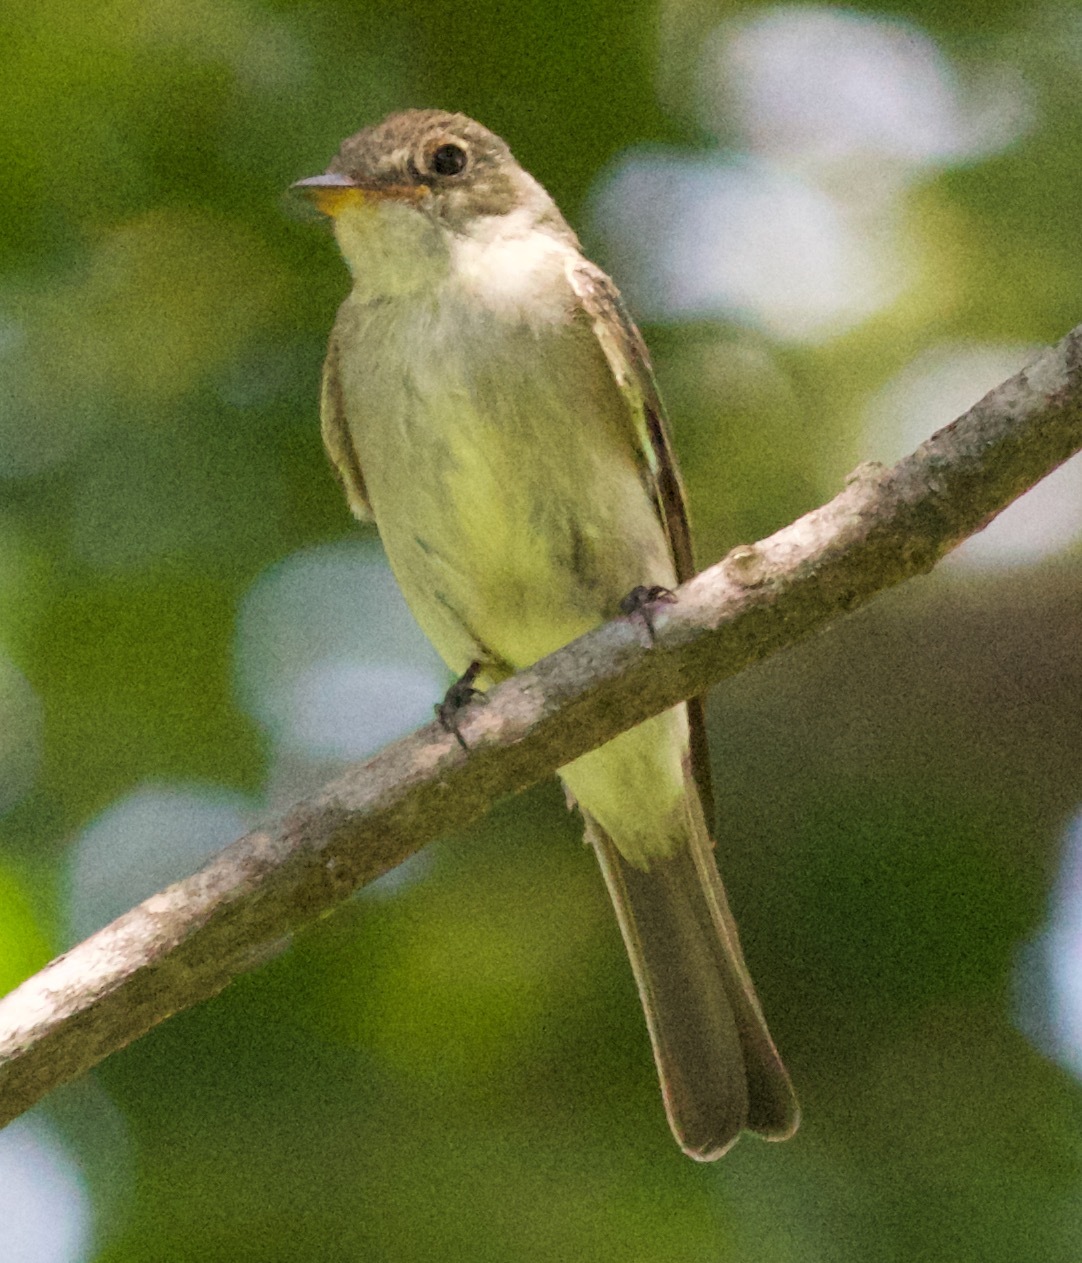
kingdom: Animalia
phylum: Chordata
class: Aves
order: Passeriformes
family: Tyrannidae
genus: Contopus
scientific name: Contopus virens
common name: Eastern wood-pewee
